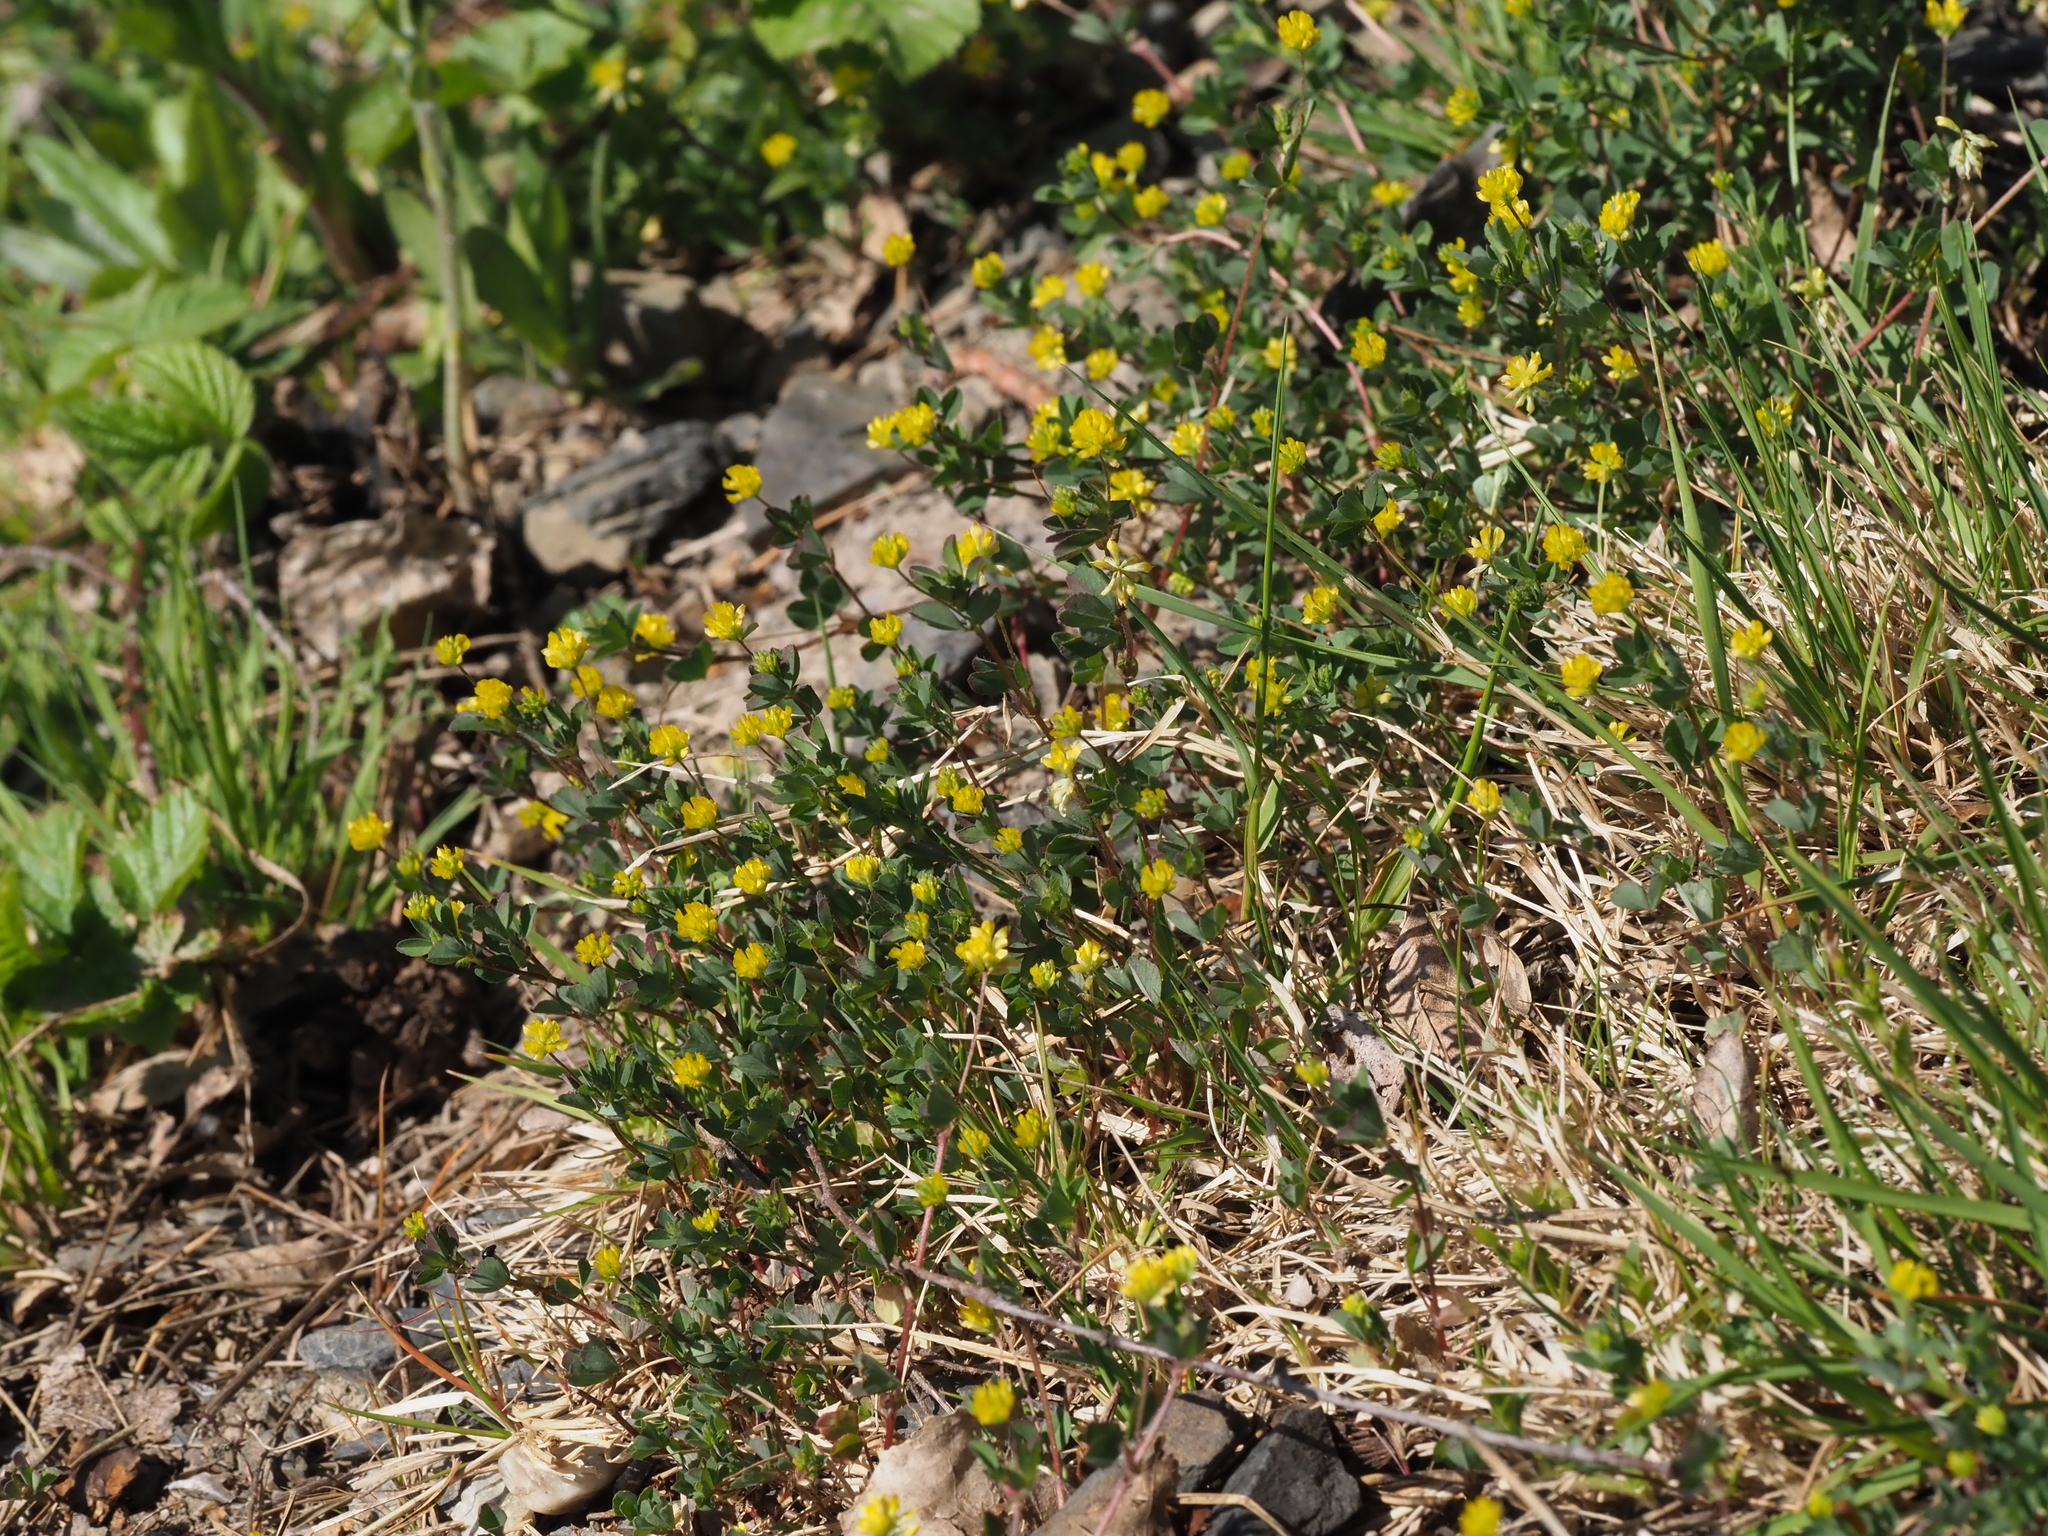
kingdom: Plantae
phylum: Tracheophyta
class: Magnoliopsida
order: Fabales
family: Fabaceae
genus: Trifolium
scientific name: Trifolium dubium
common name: Suckling clover
